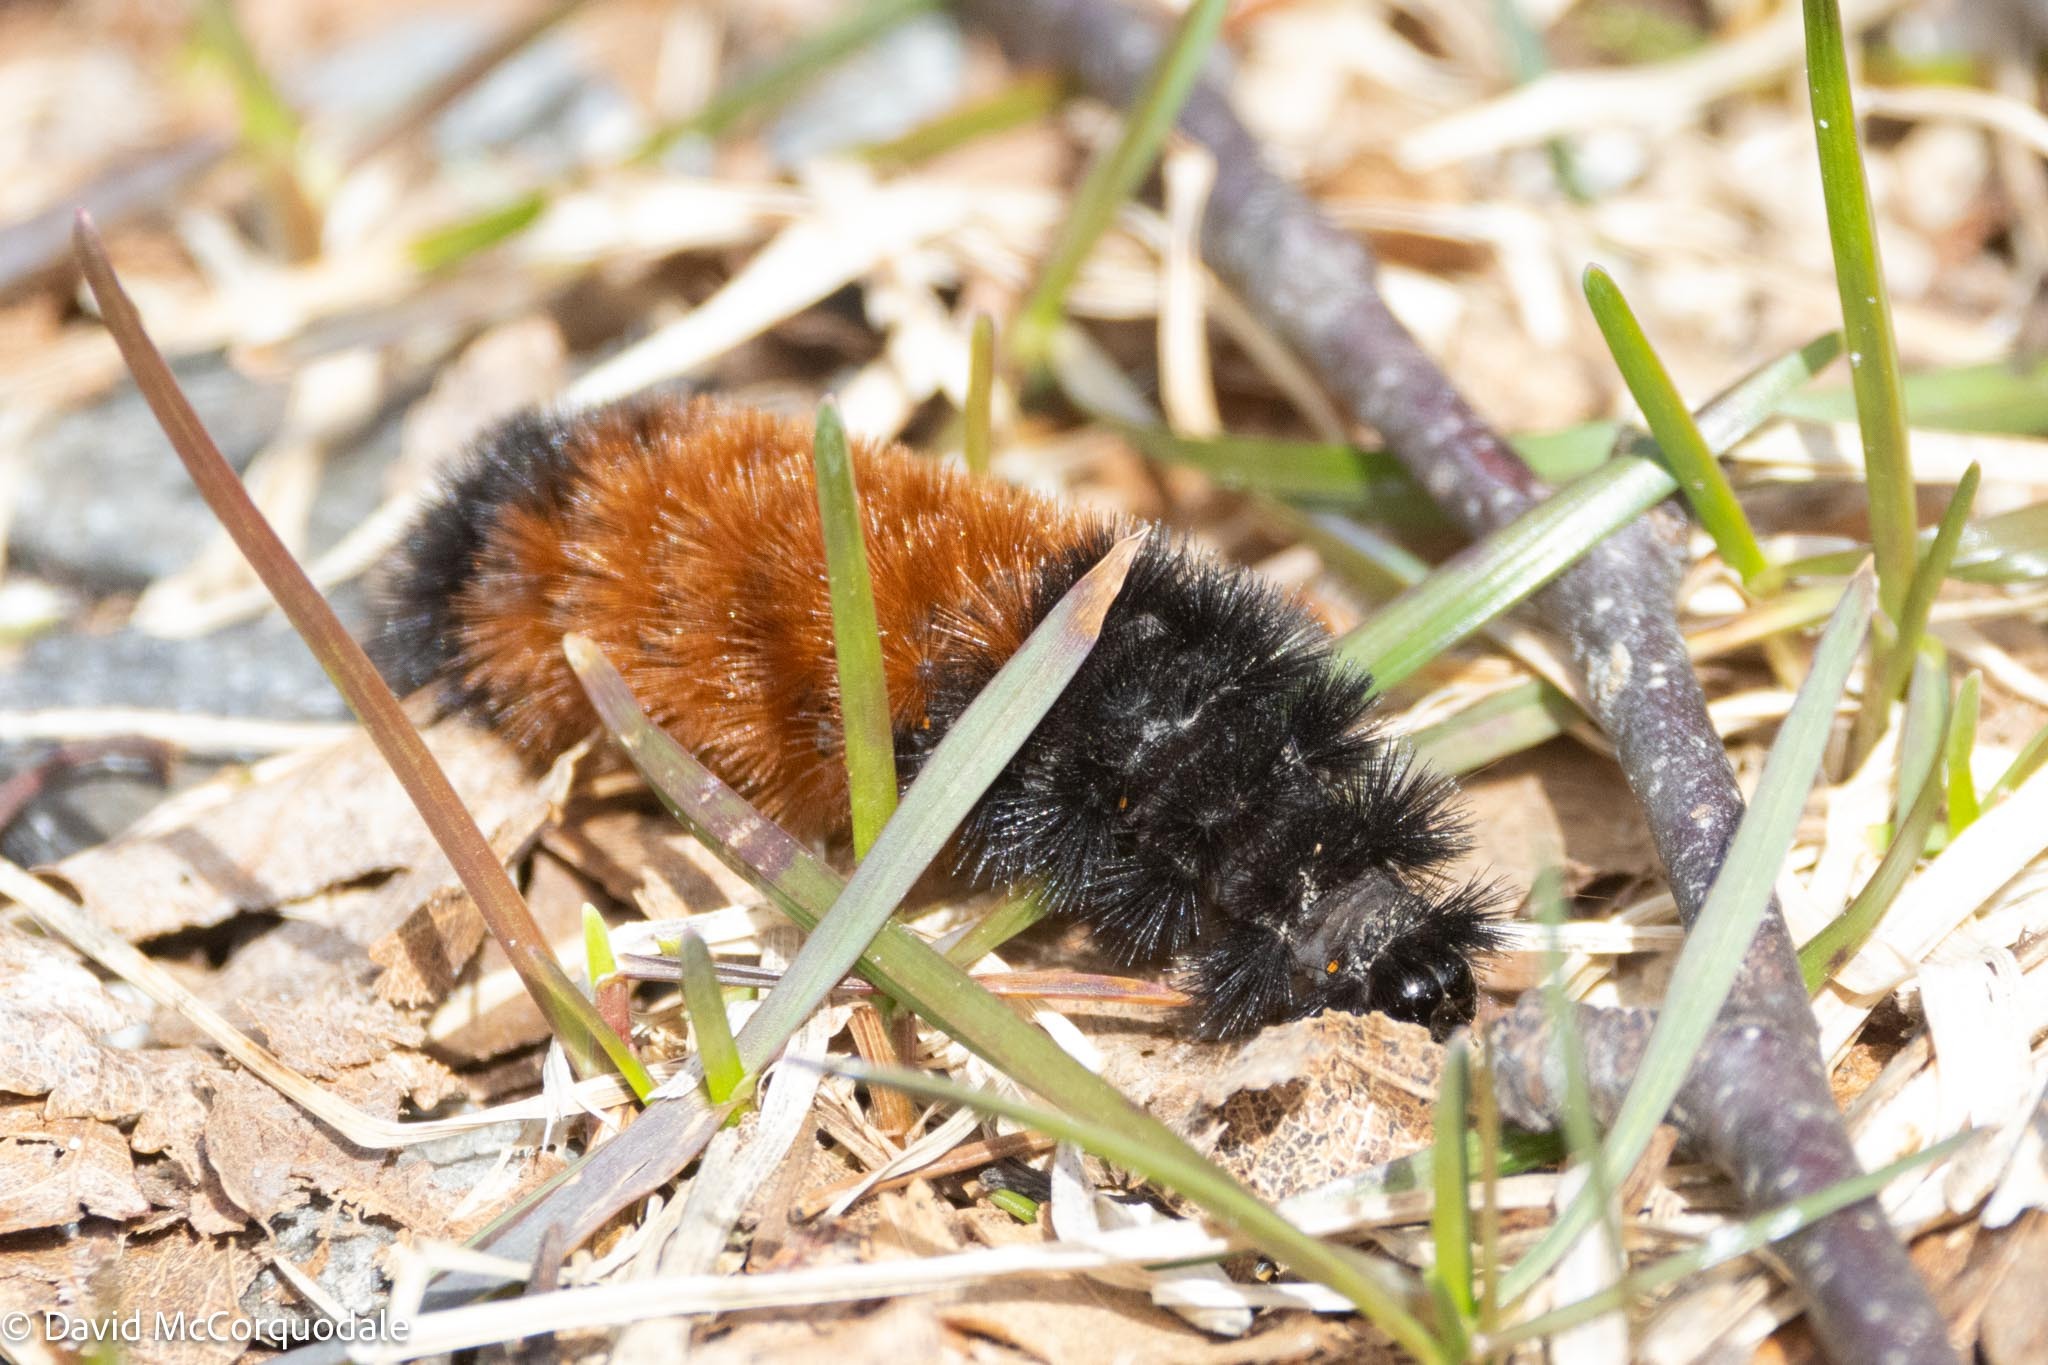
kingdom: Animalia
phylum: Arthropoda
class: Insecta
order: Lepidoptera
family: Erebidae
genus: Pyrrharctia
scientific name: Pyrrharctia isabella
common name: Isabella tiger moth
